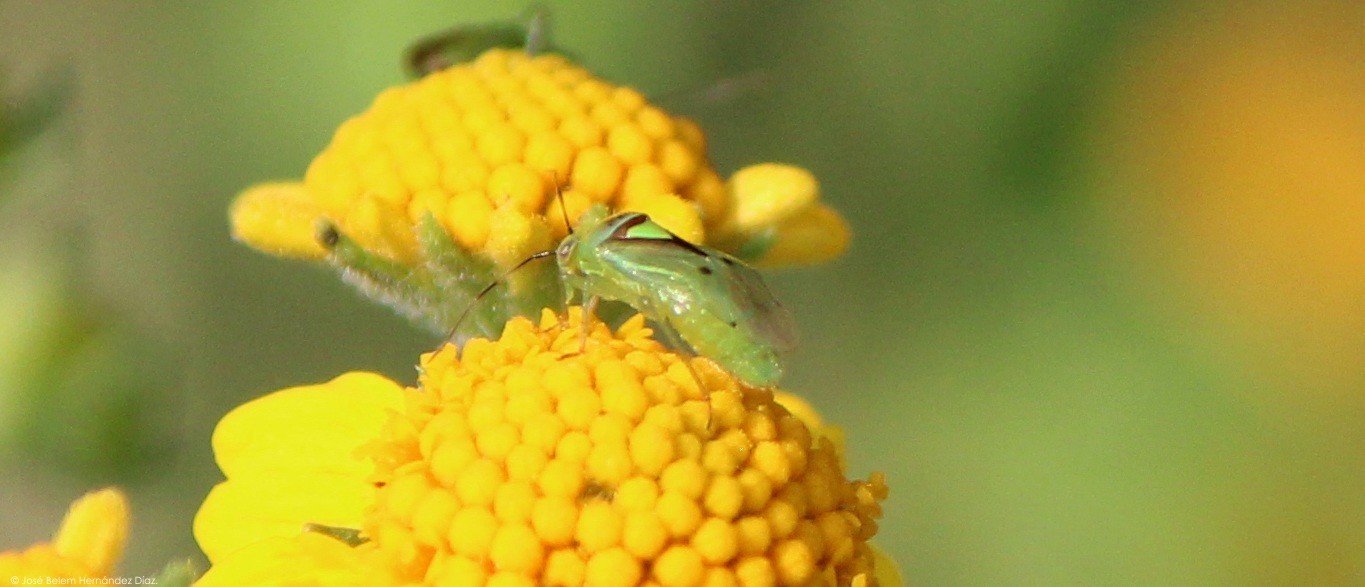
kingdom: Animalia
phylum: Arthropoda
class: Insecta
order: Hemiptera
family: Miridae
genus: Proba
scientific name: Proba distanti
